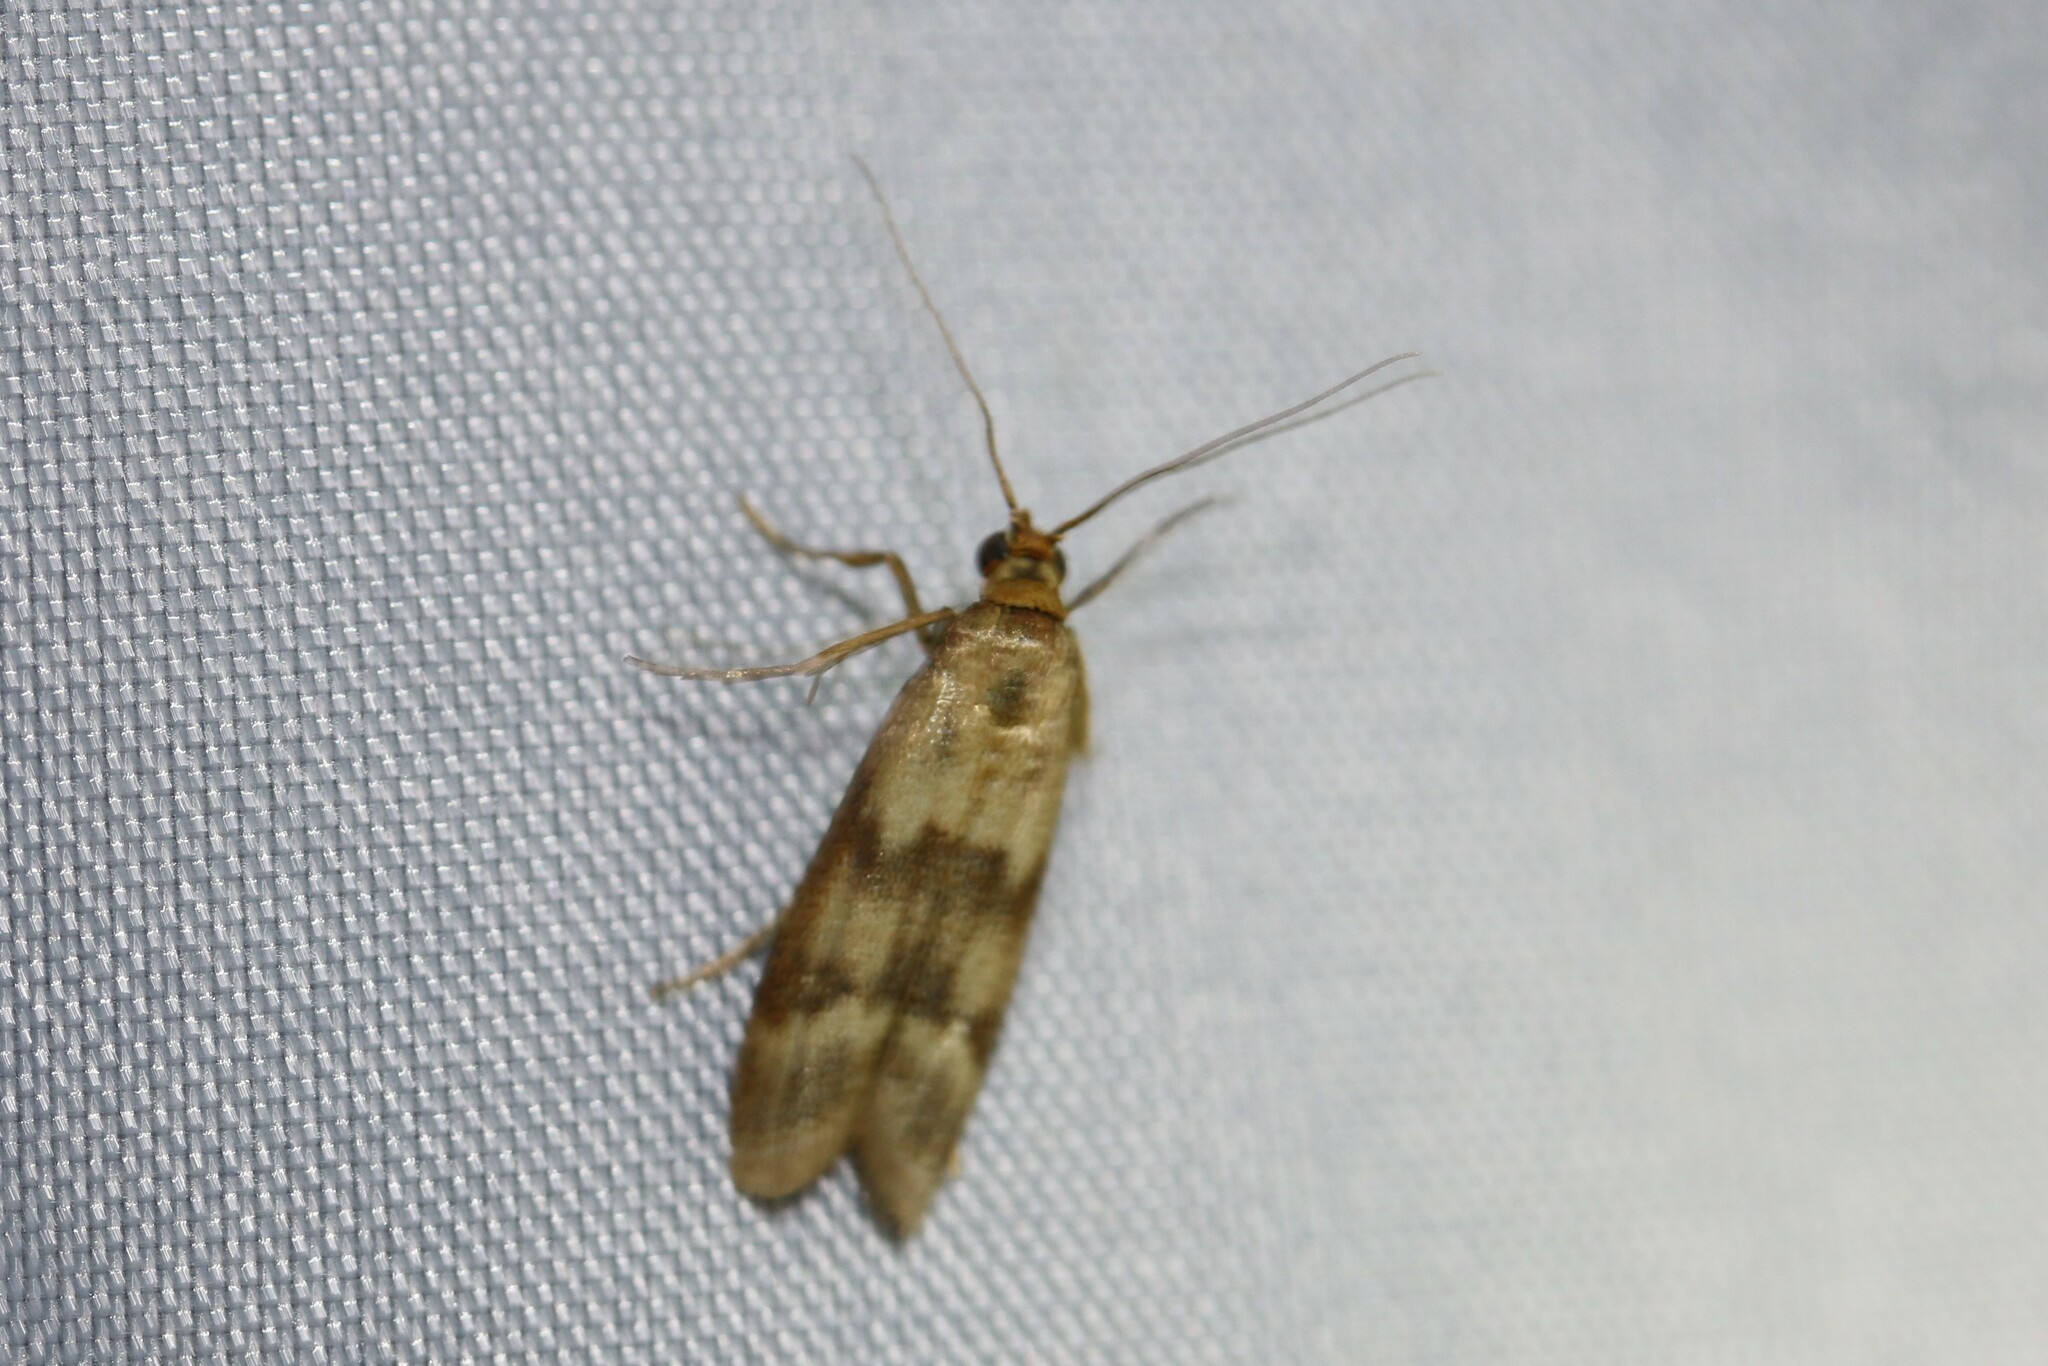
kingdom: Animalia
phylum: Arthropoda
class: Insecta
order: Lepidoptera
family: Pyralidae
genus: Homoeosoma
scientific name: Homoeosoma sinuella
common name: Twin-barred knot-horn
